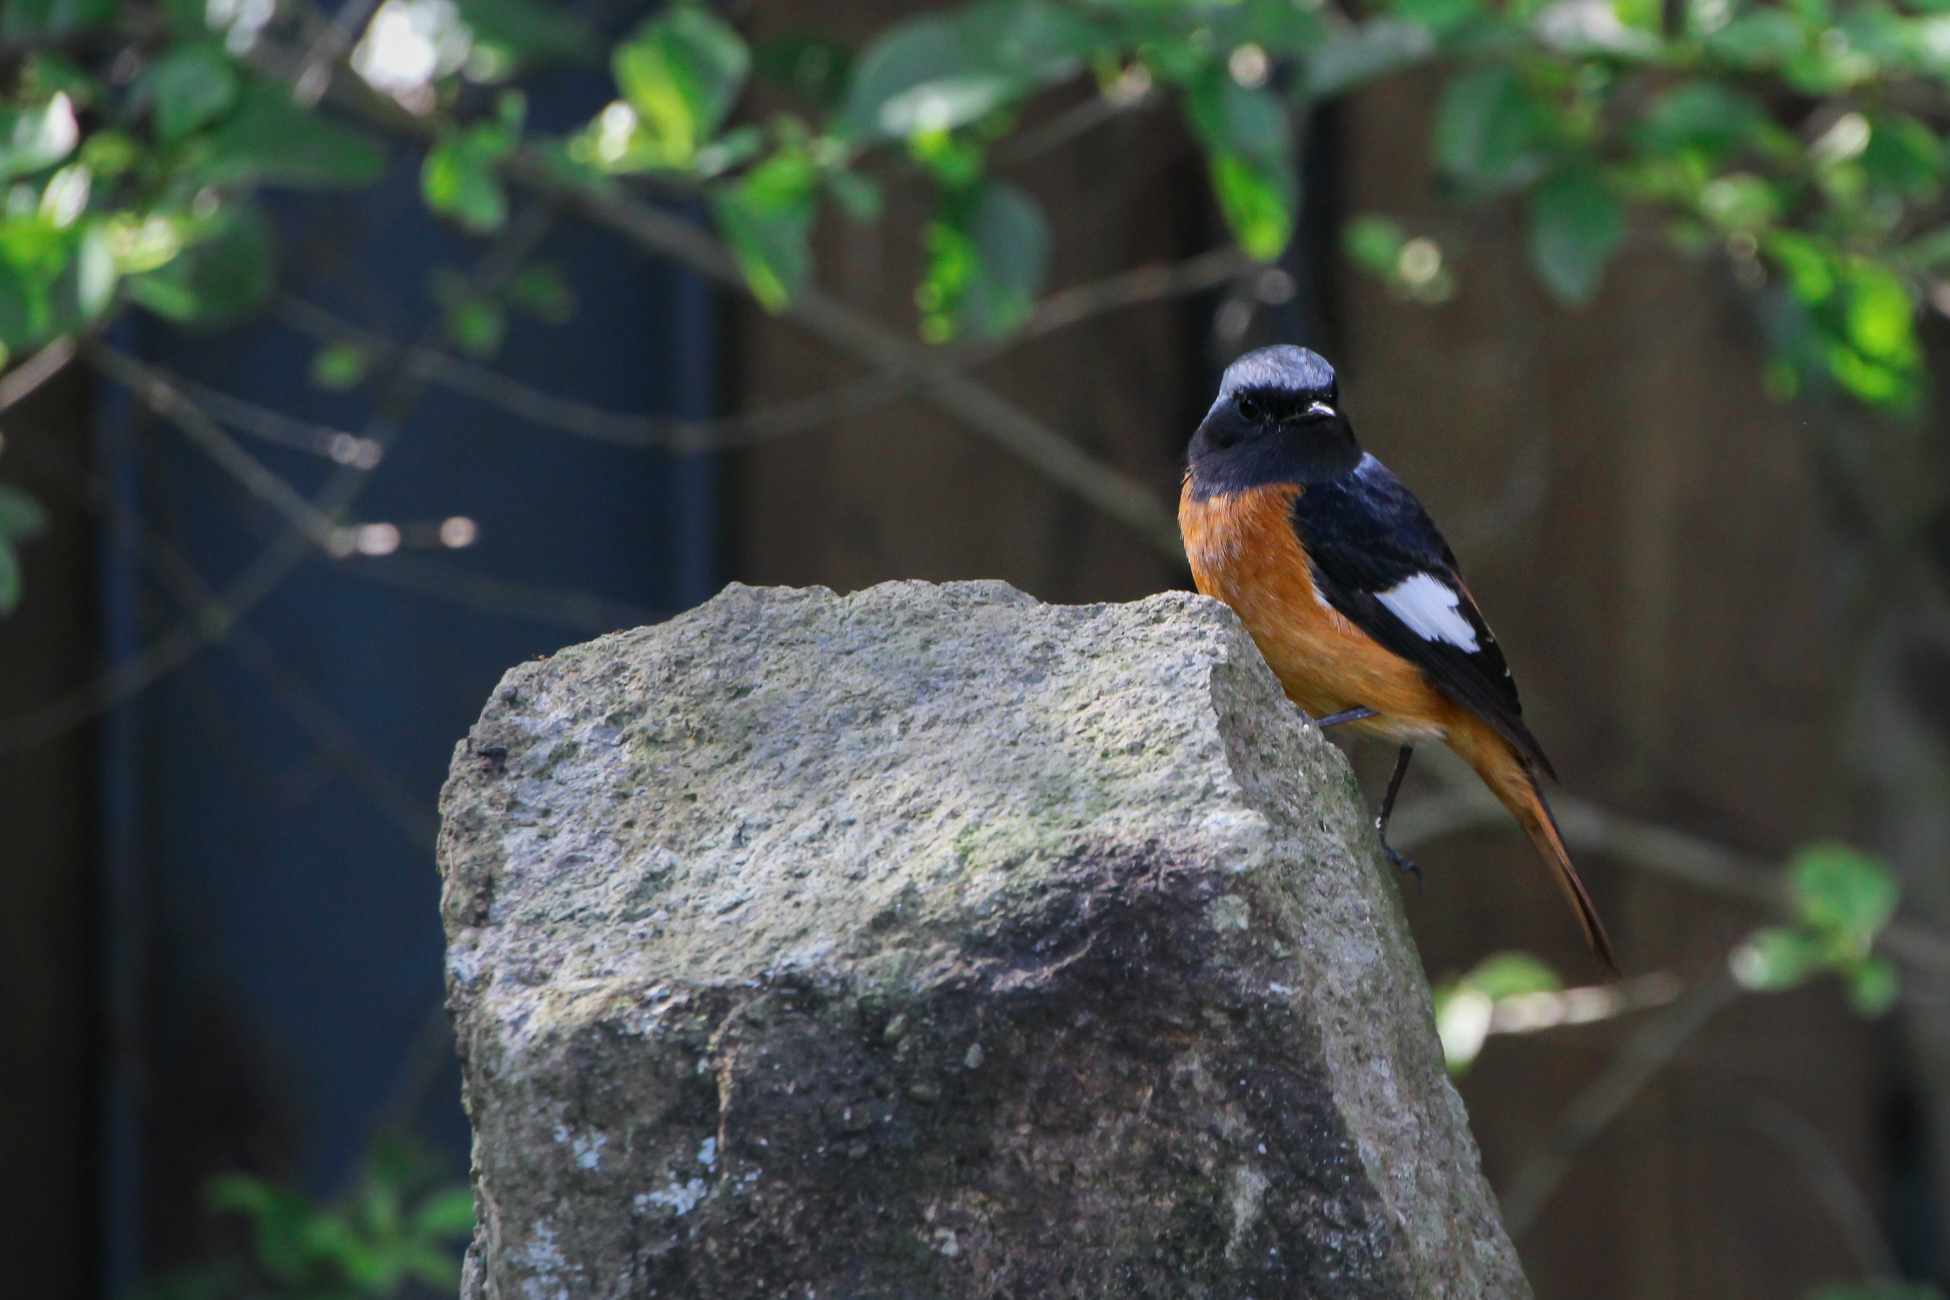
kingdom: Animalia
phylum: Chordata
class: Aves
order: Passeriformes
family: Muscicapidae
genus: Phoenicurus
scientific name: Phoenicurus auroreus
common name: Daurian redstart
